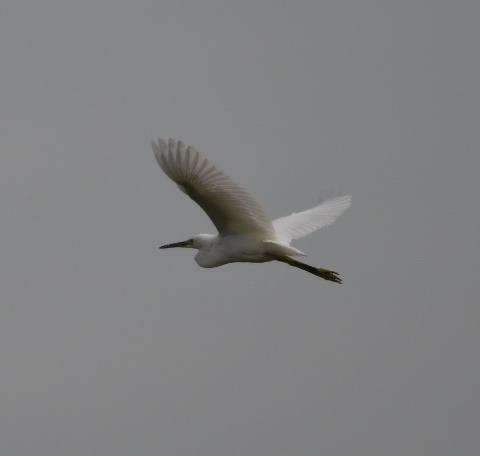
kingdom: Animalia
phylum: Chordata
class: Aves
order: Pelecaniformes
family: Ardeidae
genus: Egretta
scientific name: Egretta thula
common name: Snowy egret
